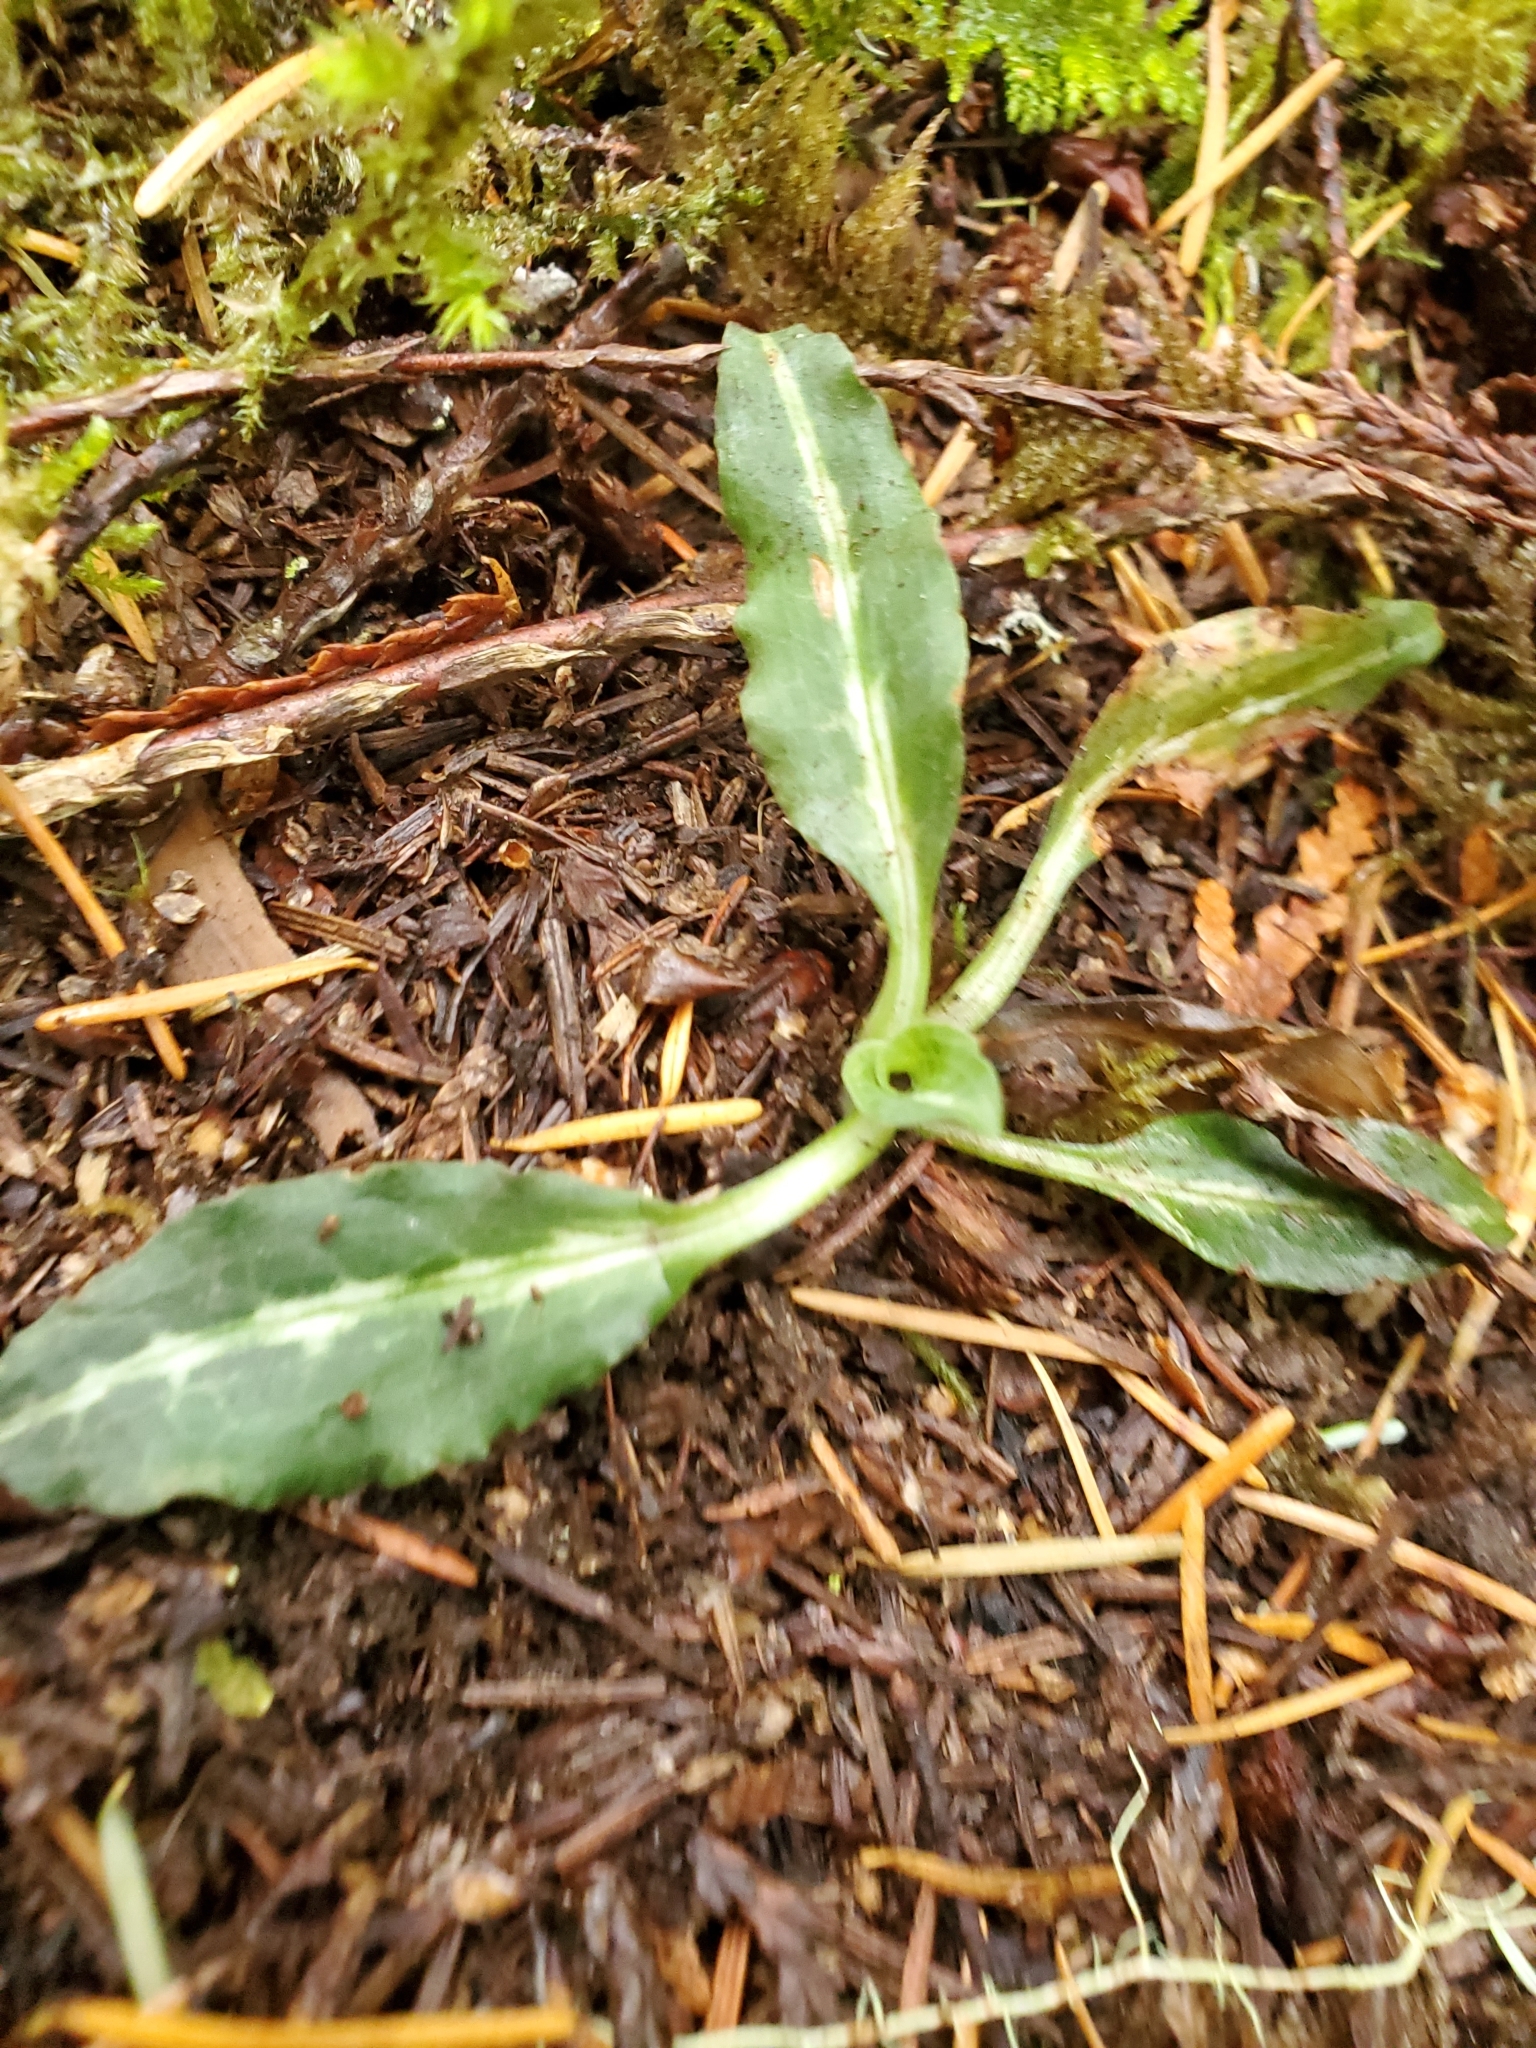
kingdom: Plantae
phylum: Tracheophyta
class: Liliopsida
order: Asparagales
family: Orchidaceae
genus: Goodyera
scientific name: Goodyera oblongifolia
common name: Giant rattlesnake-plantain
